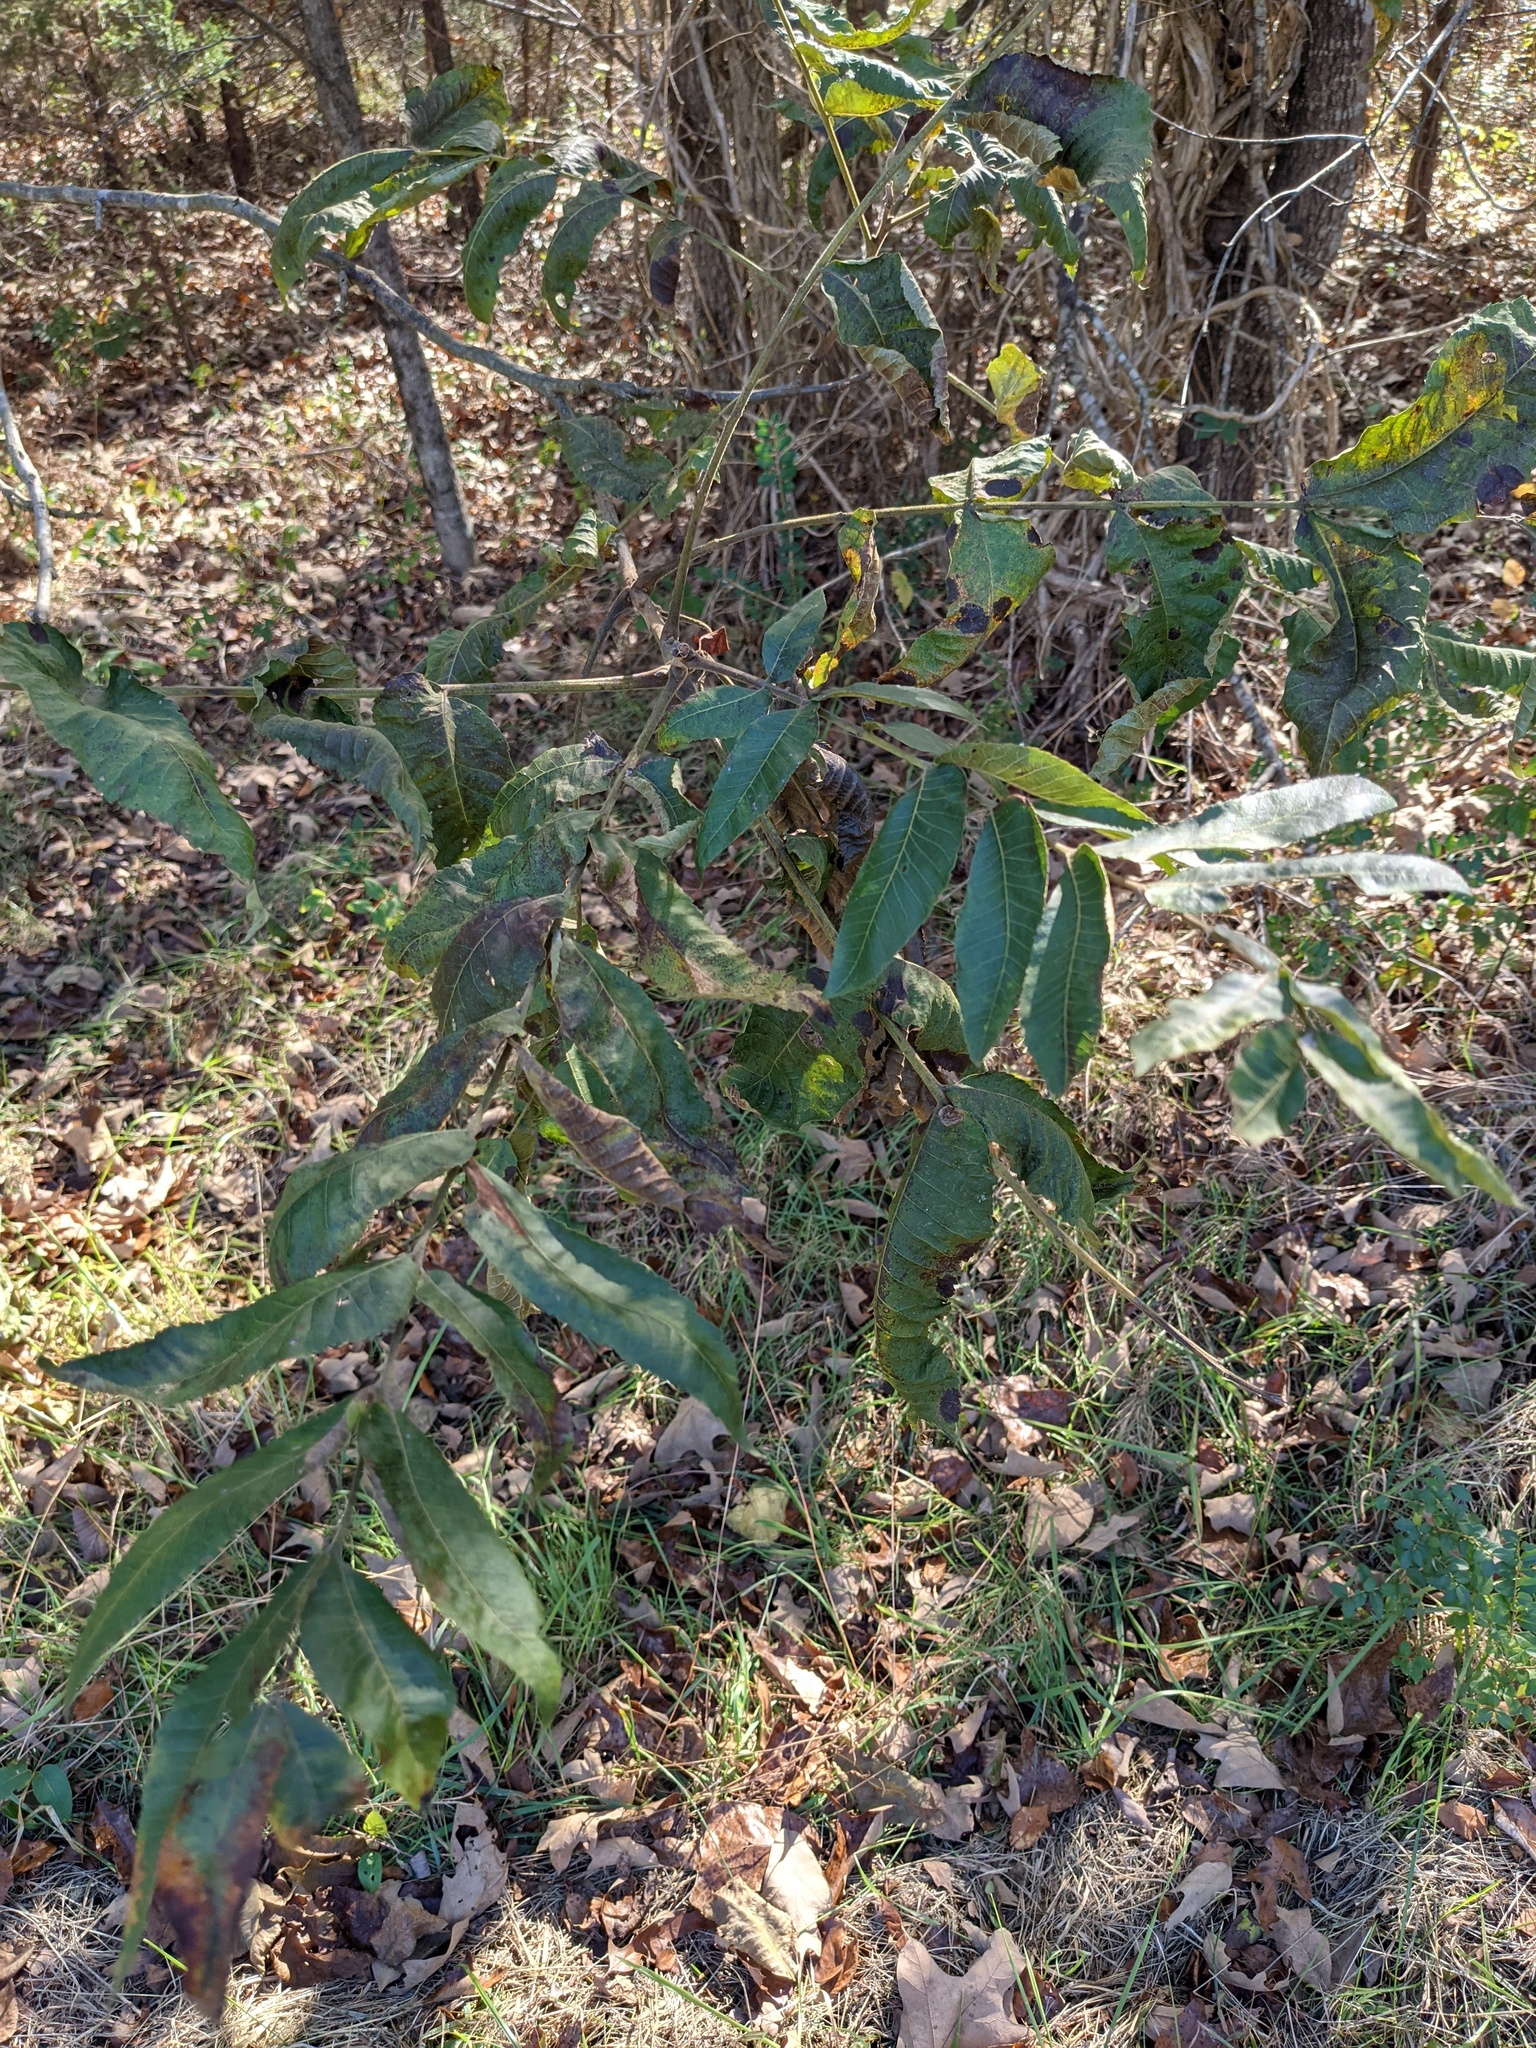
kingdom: Plantae
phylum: Tracheophyta
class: Magnoliopsida
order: Fagales
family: Juglandaceae
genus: Juglans
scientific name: Juglans nigra
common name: Black walnut
